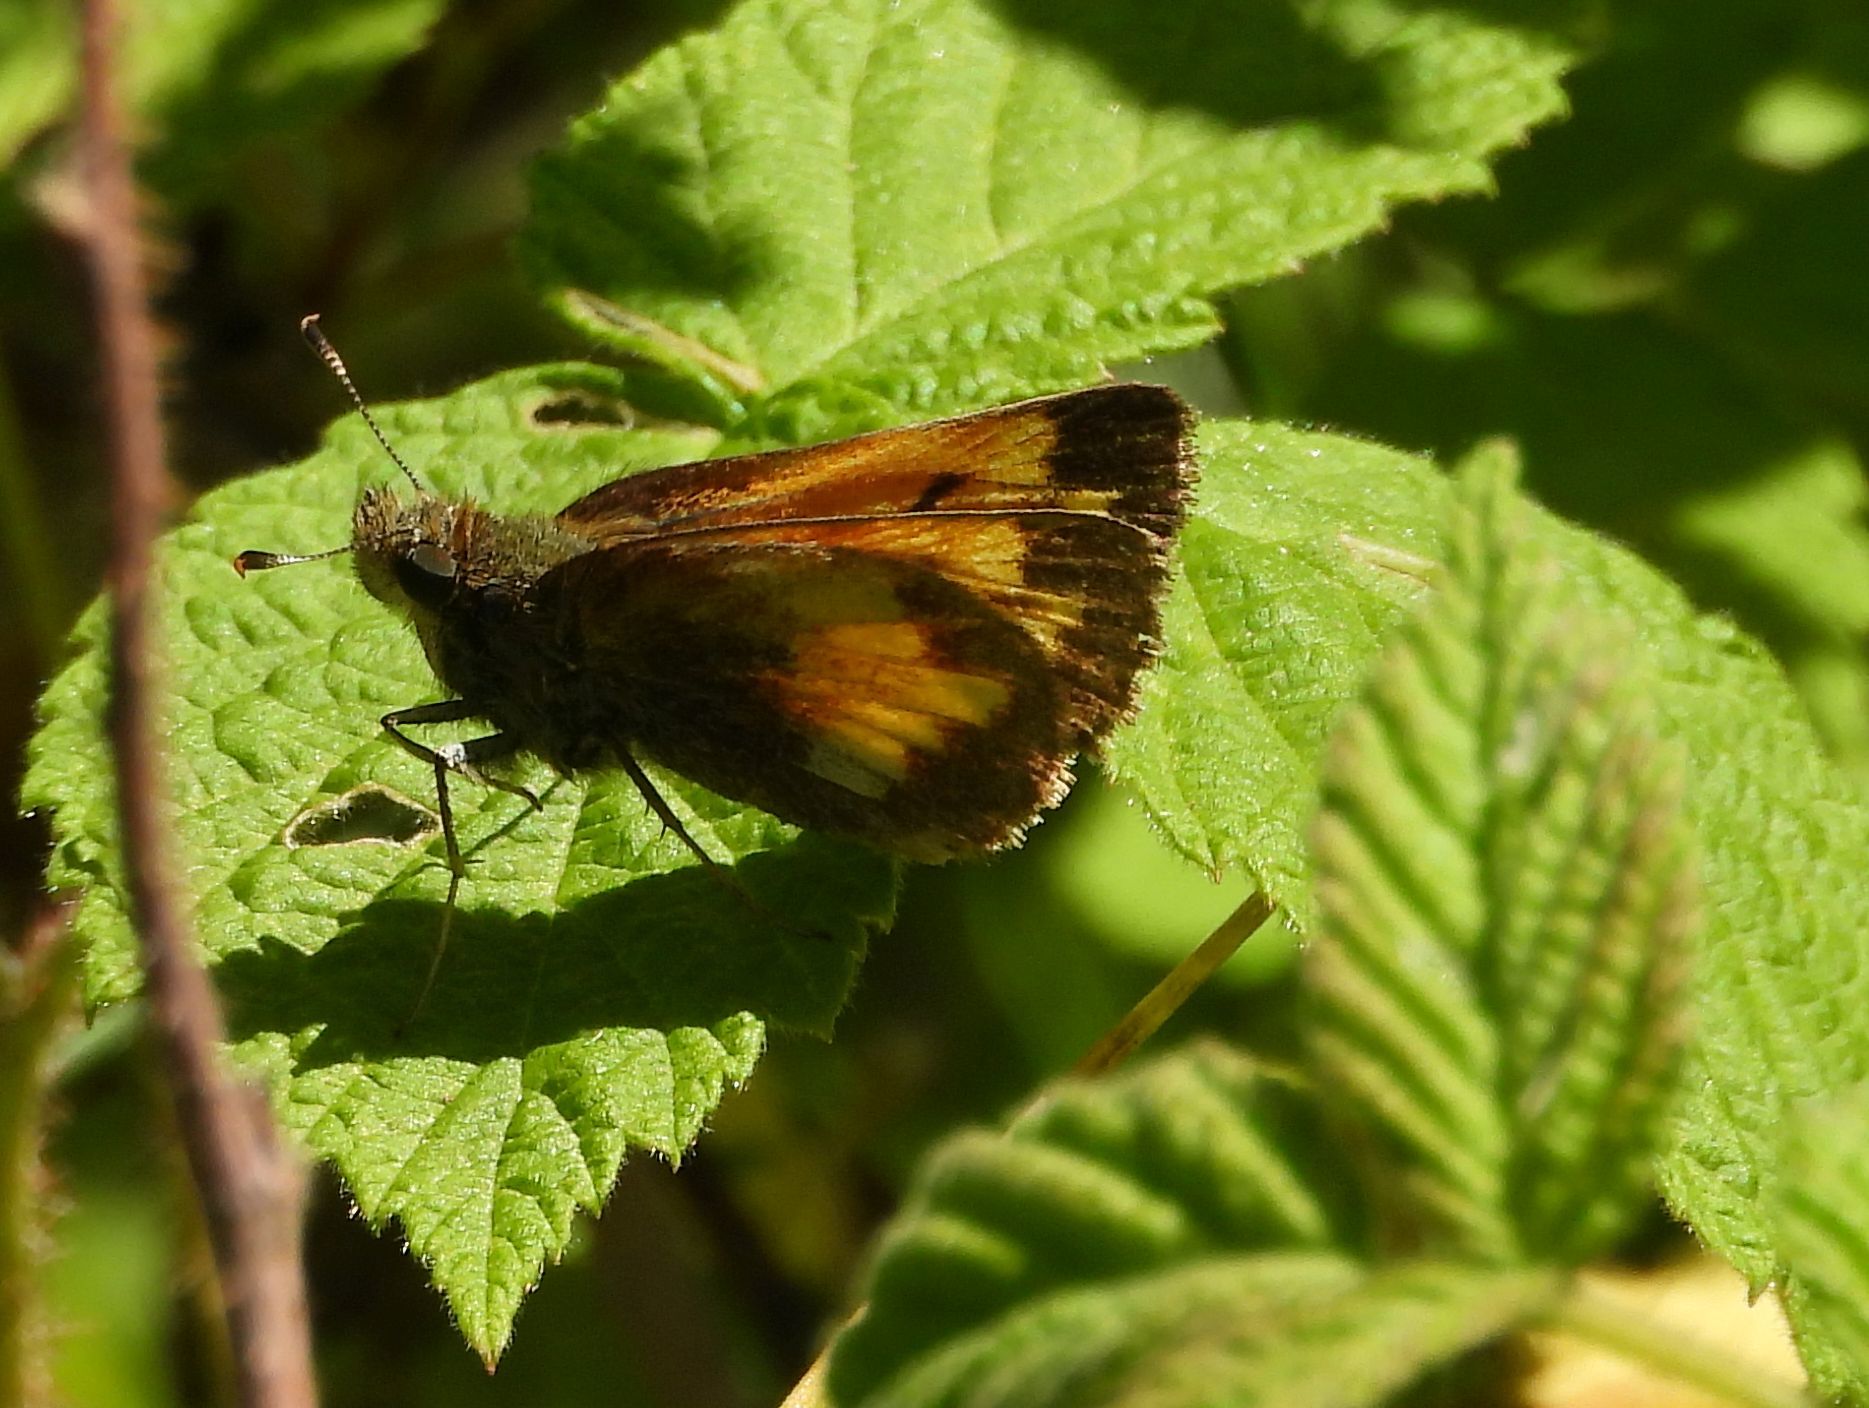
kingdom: Animalia
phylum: Arthropoda
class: Insecta
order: Lepidoptera
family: Hesperiidae
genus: Lon
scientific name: Lon hobomok
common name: Hobomok skipper
